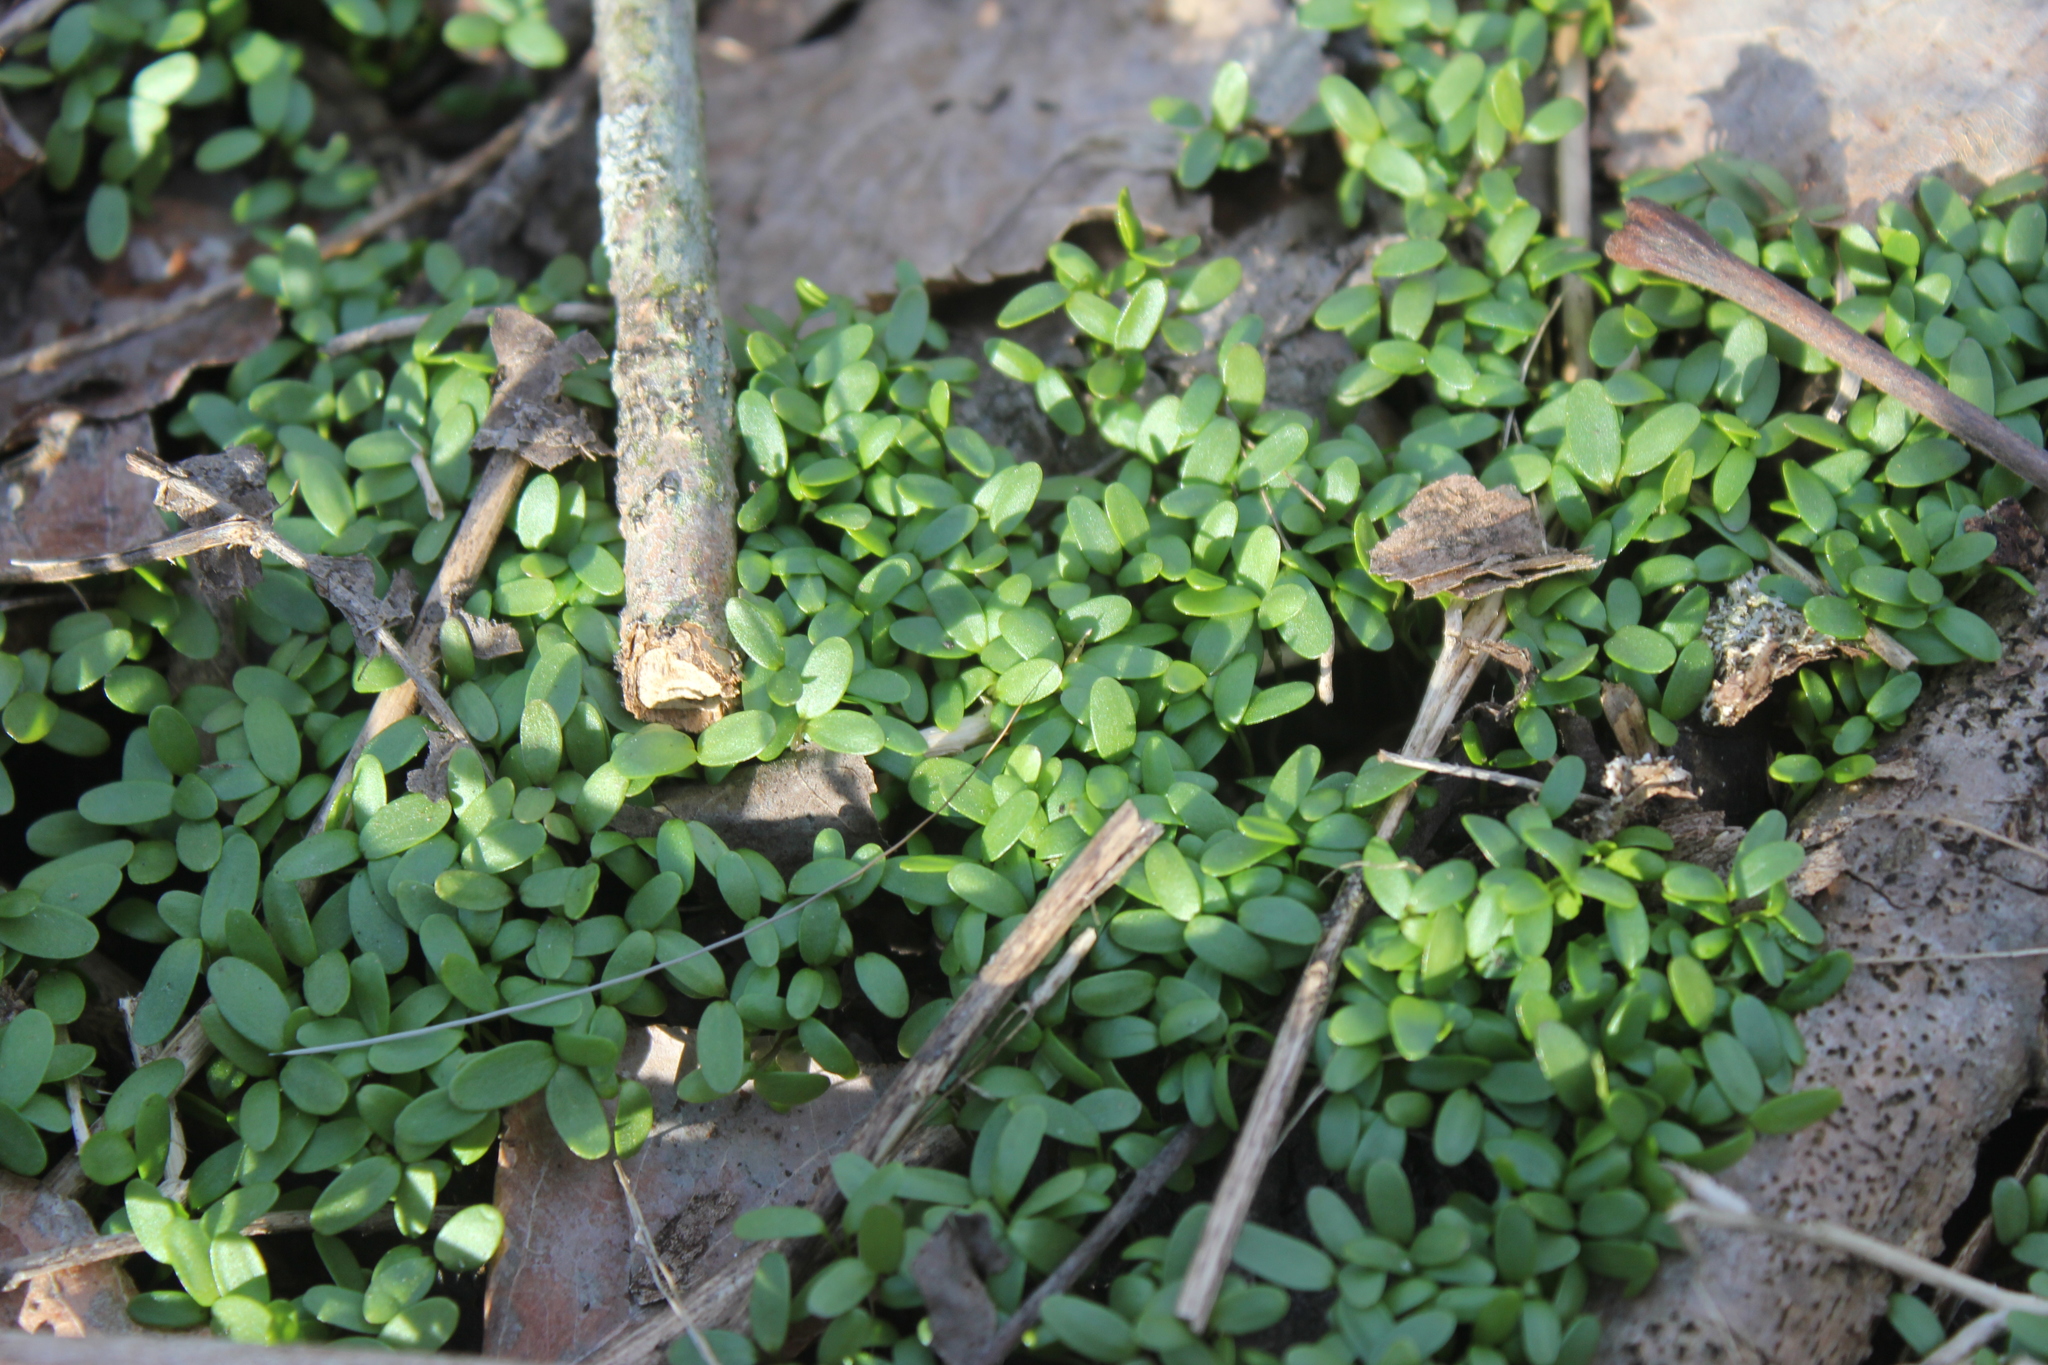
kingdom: Plantae
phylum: Tracheophyta
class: Magnoliopsida
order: Brassicales
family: Brassicaceae
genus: Alliaria
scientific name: Alliaria petiolata
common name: Garlic mustard
